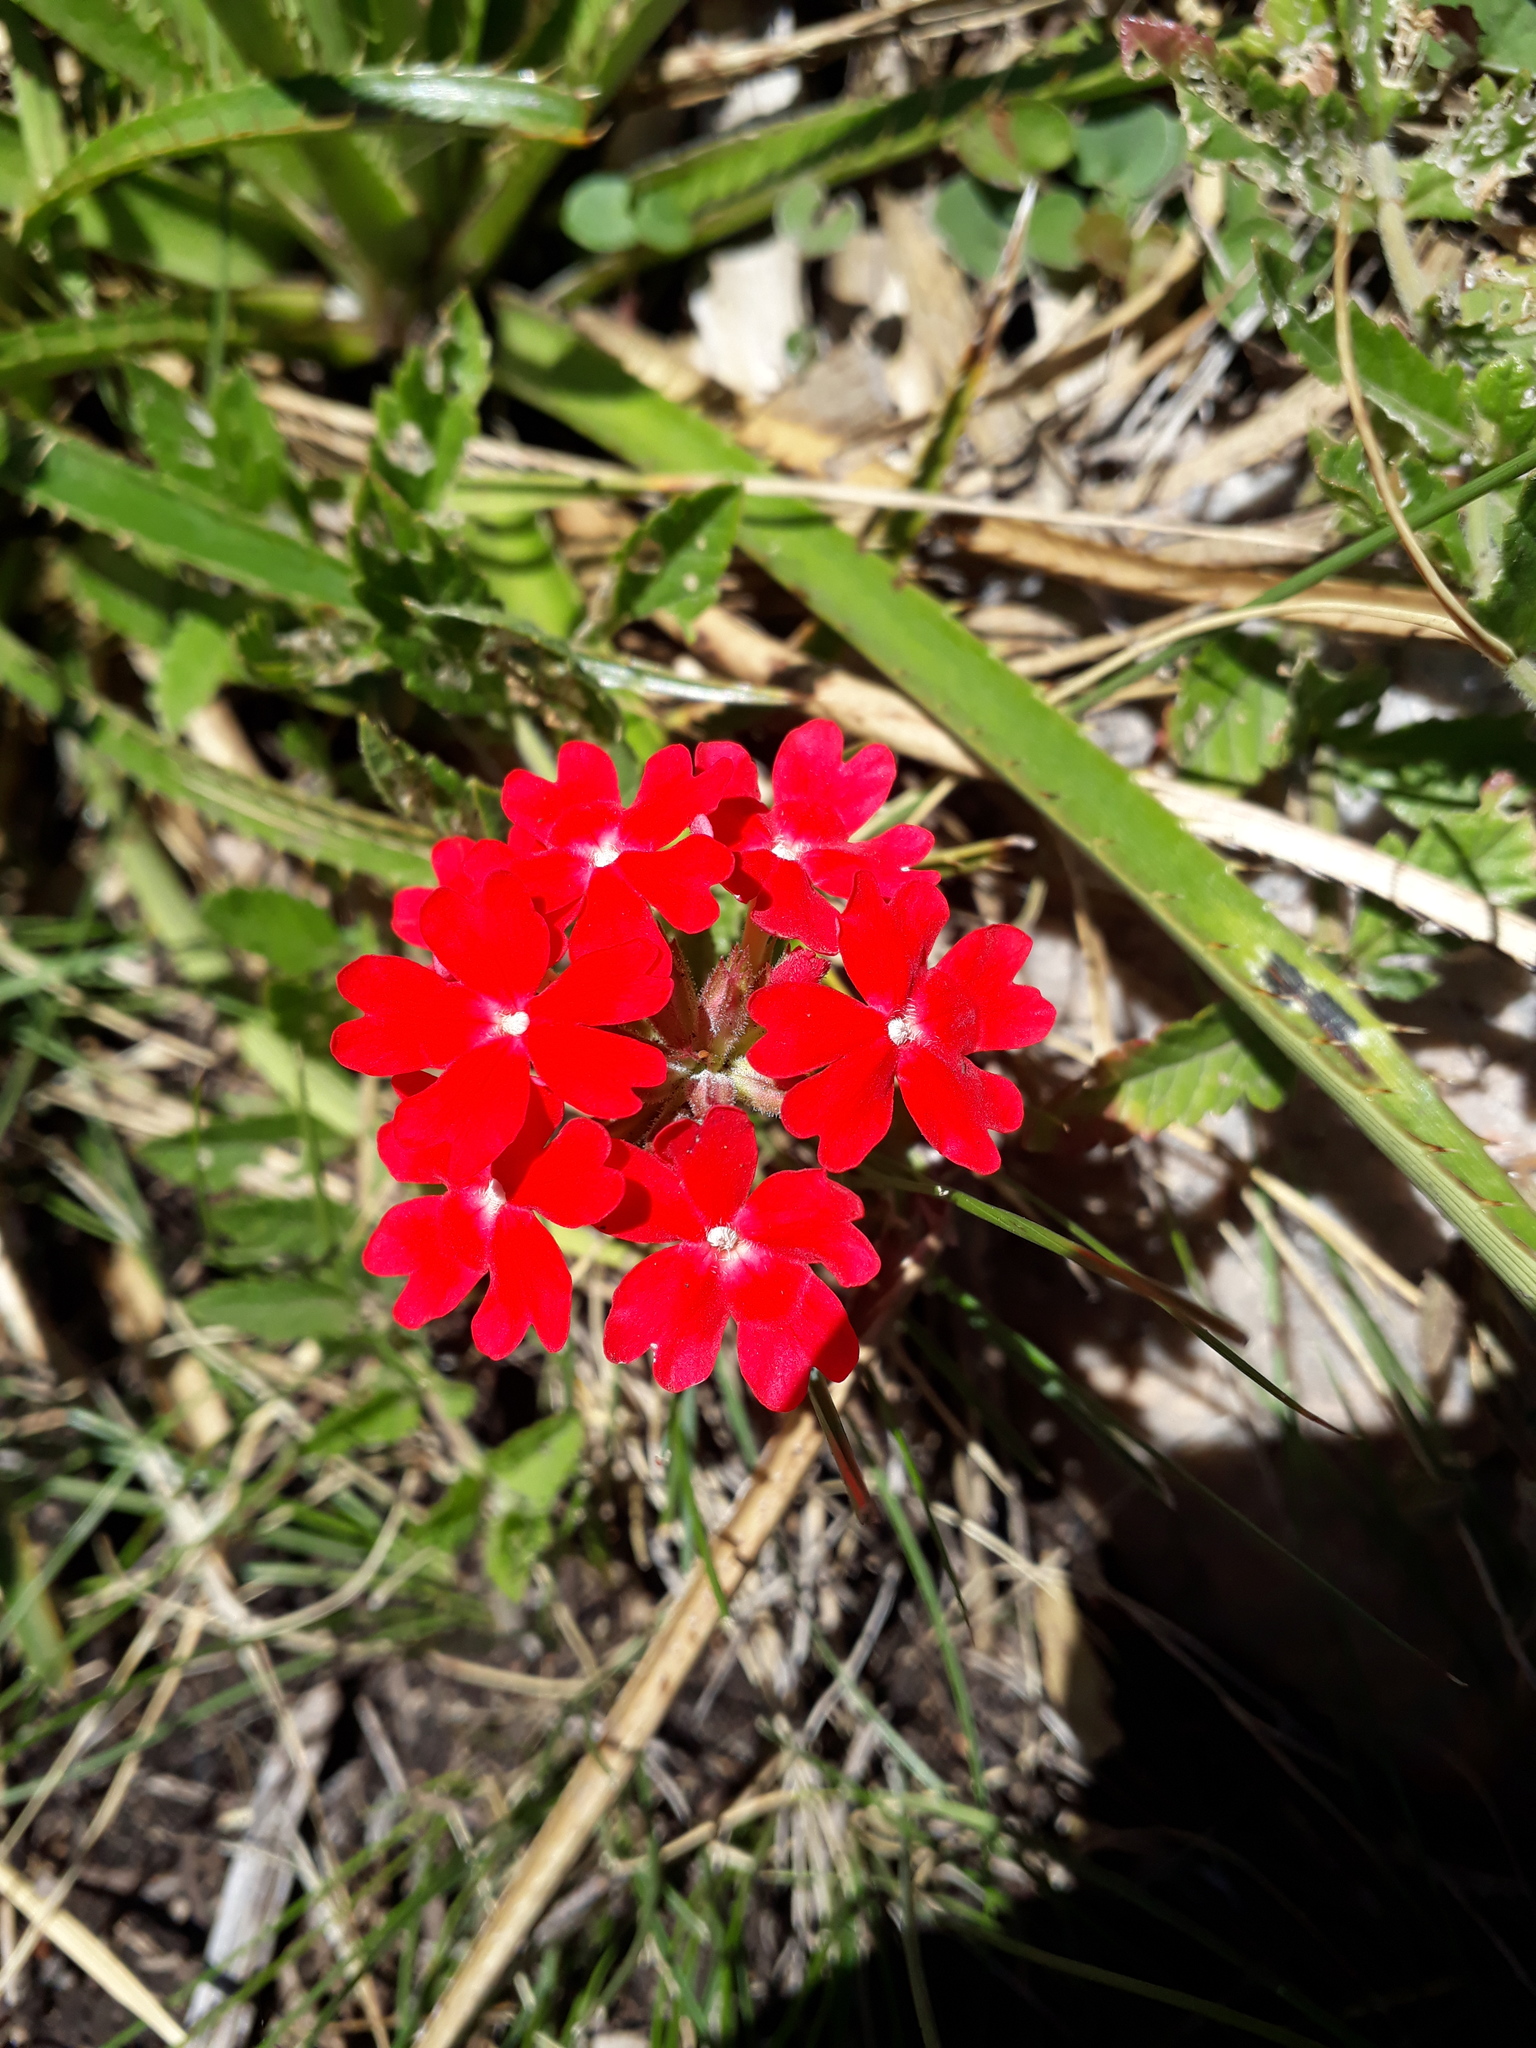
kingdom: Plantae
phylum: Tracheophyta
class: Magnoliopsida
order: Lamiales
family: Verbenaceae
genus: Verbena
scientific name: Verbena peruviana
